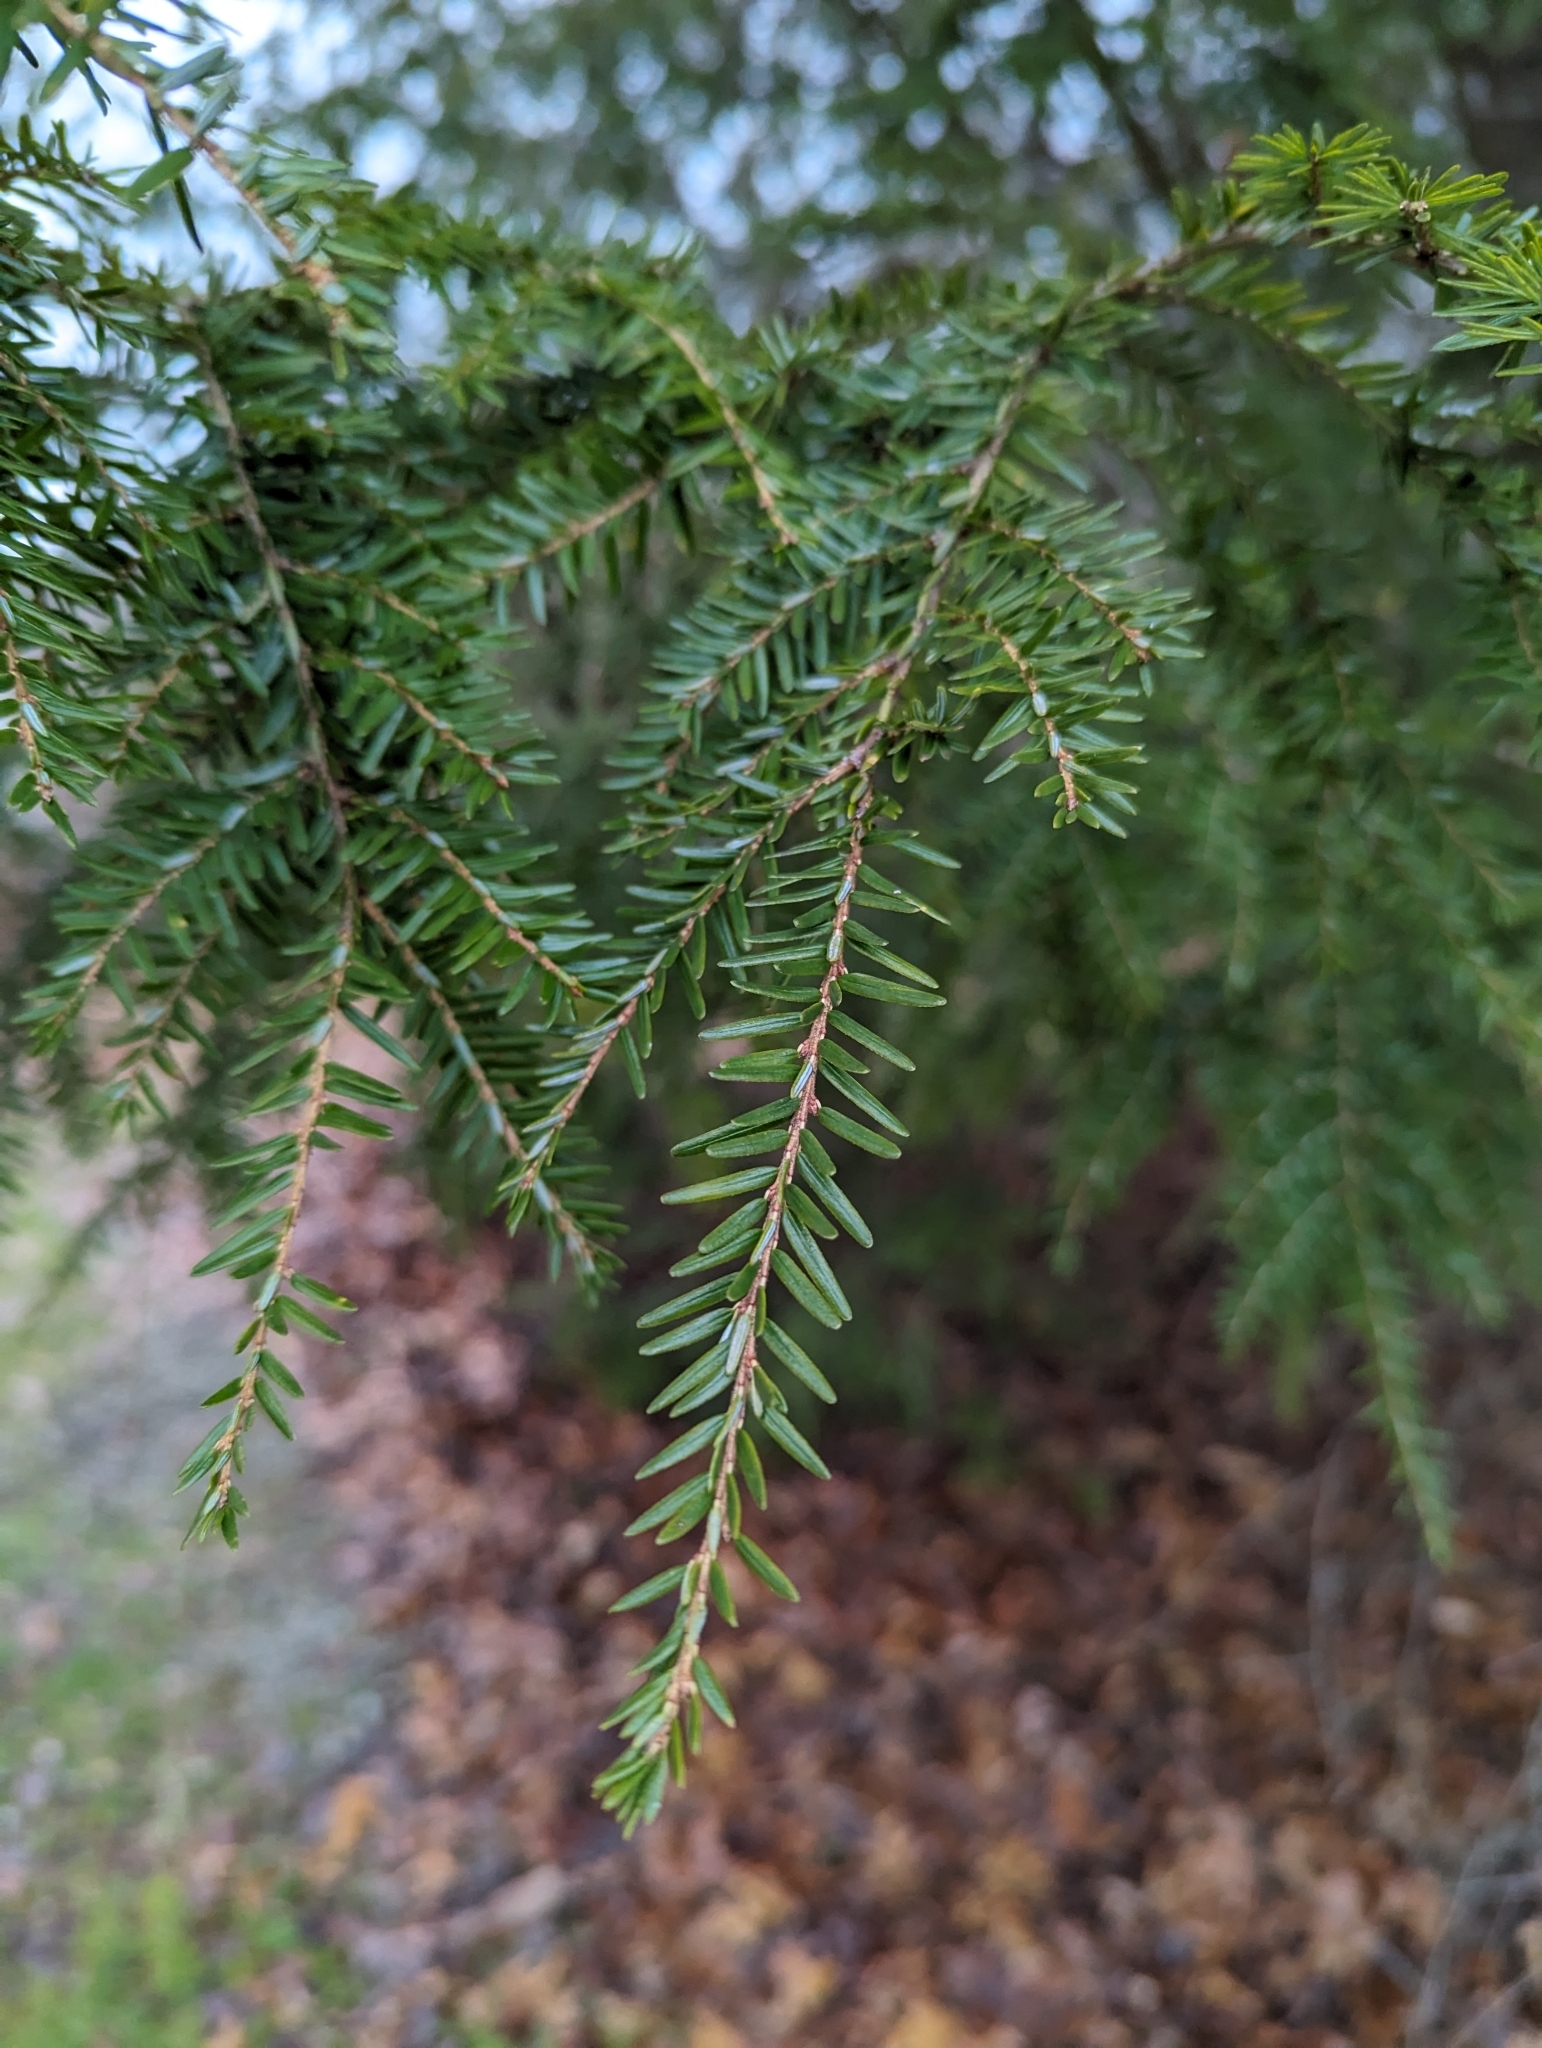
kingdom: Plantae
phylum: Tracheophyta
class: Pinopsida
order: Pinales
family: Pinaceae
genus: Tsuga
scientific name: Tsuga canadensis
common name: Eastern hemlock
